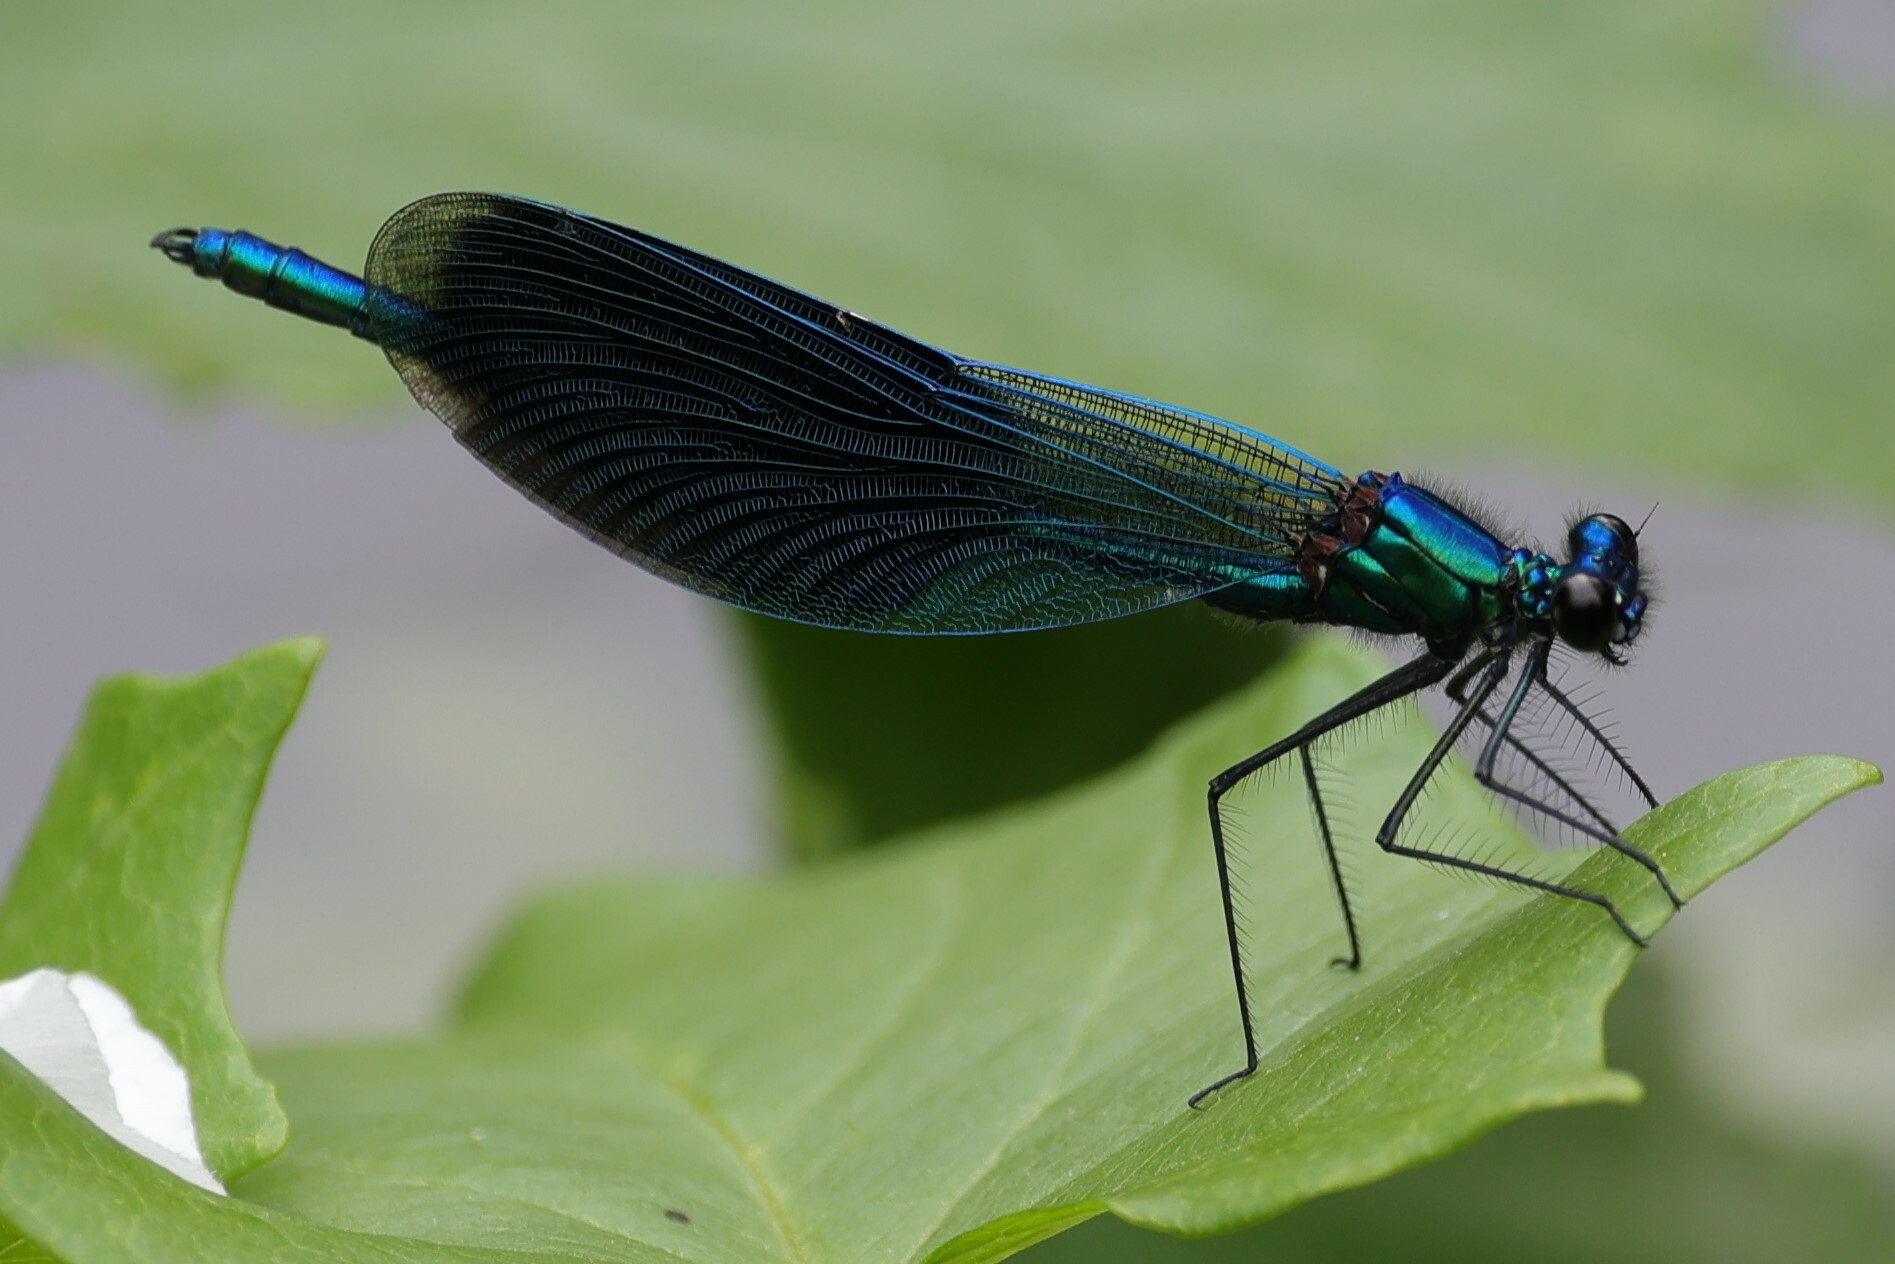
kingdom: Animalia
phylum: Arthropoda
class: Insecta
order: Odonata
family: Calopterygidae
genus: Calopteryx
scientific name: Calopteryx splendens
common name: Banded demoiselle
